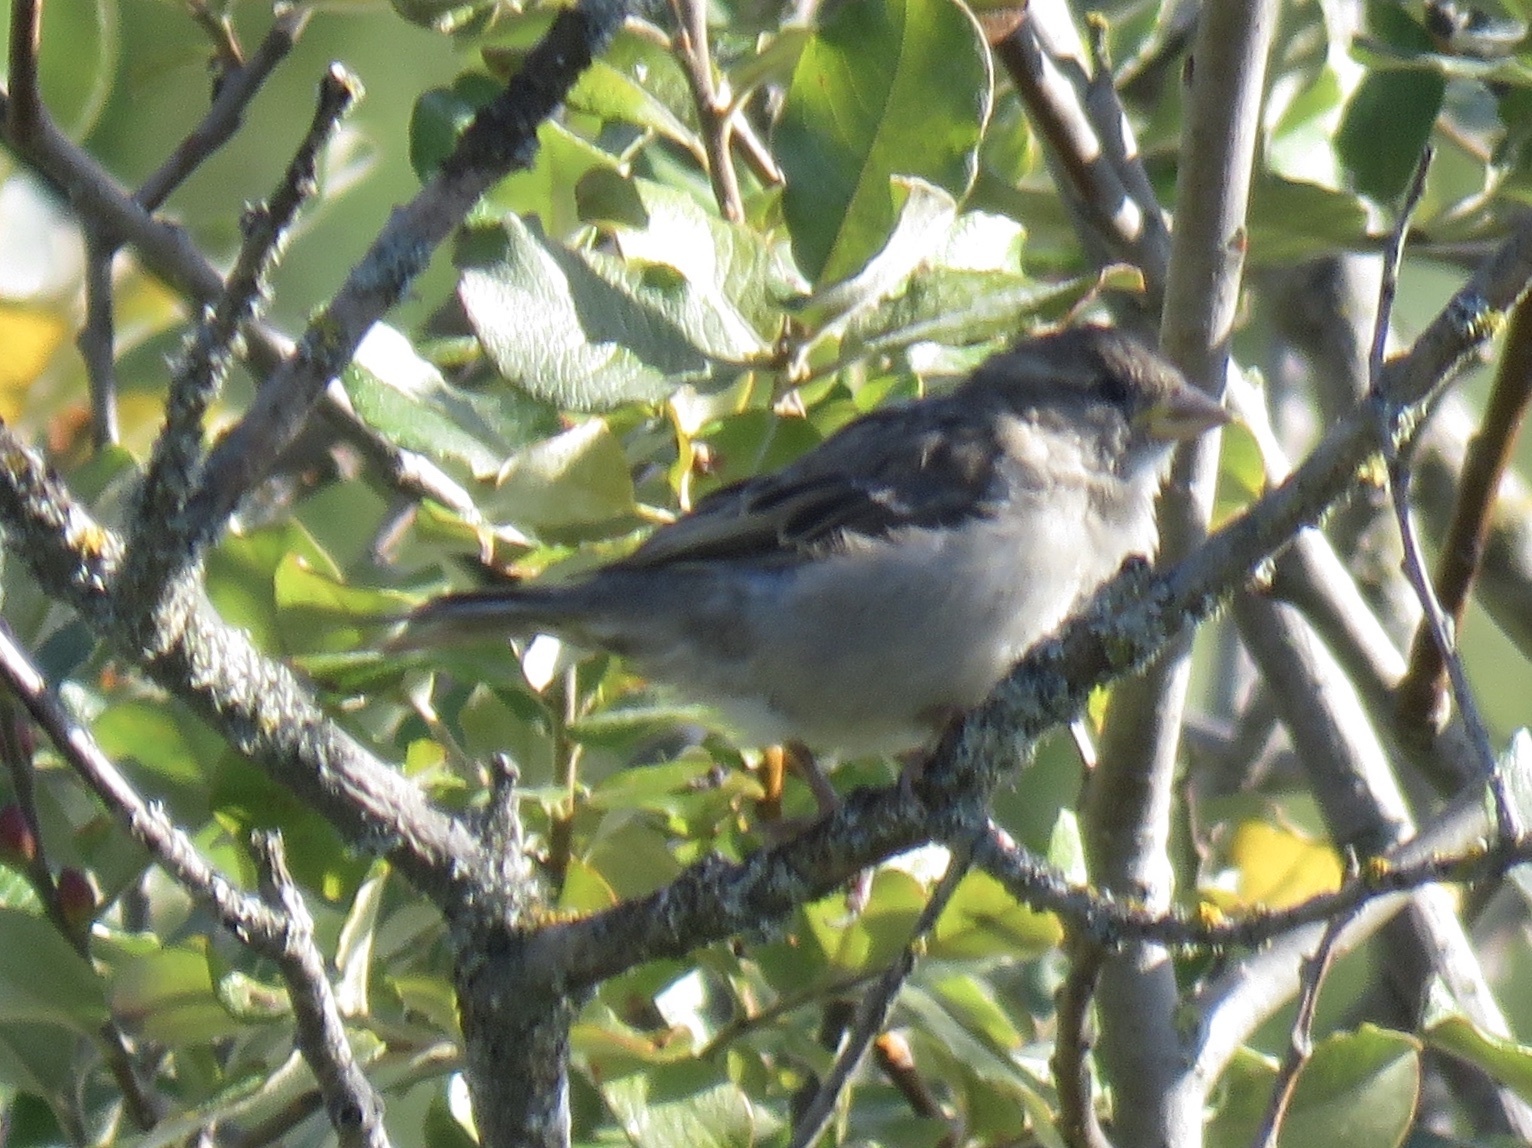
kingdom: Animalia
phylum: Chordata
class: Aves
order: Passeriformes
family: Passeridae
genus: Passer
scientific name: Passer domesticus
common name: House sparrow
